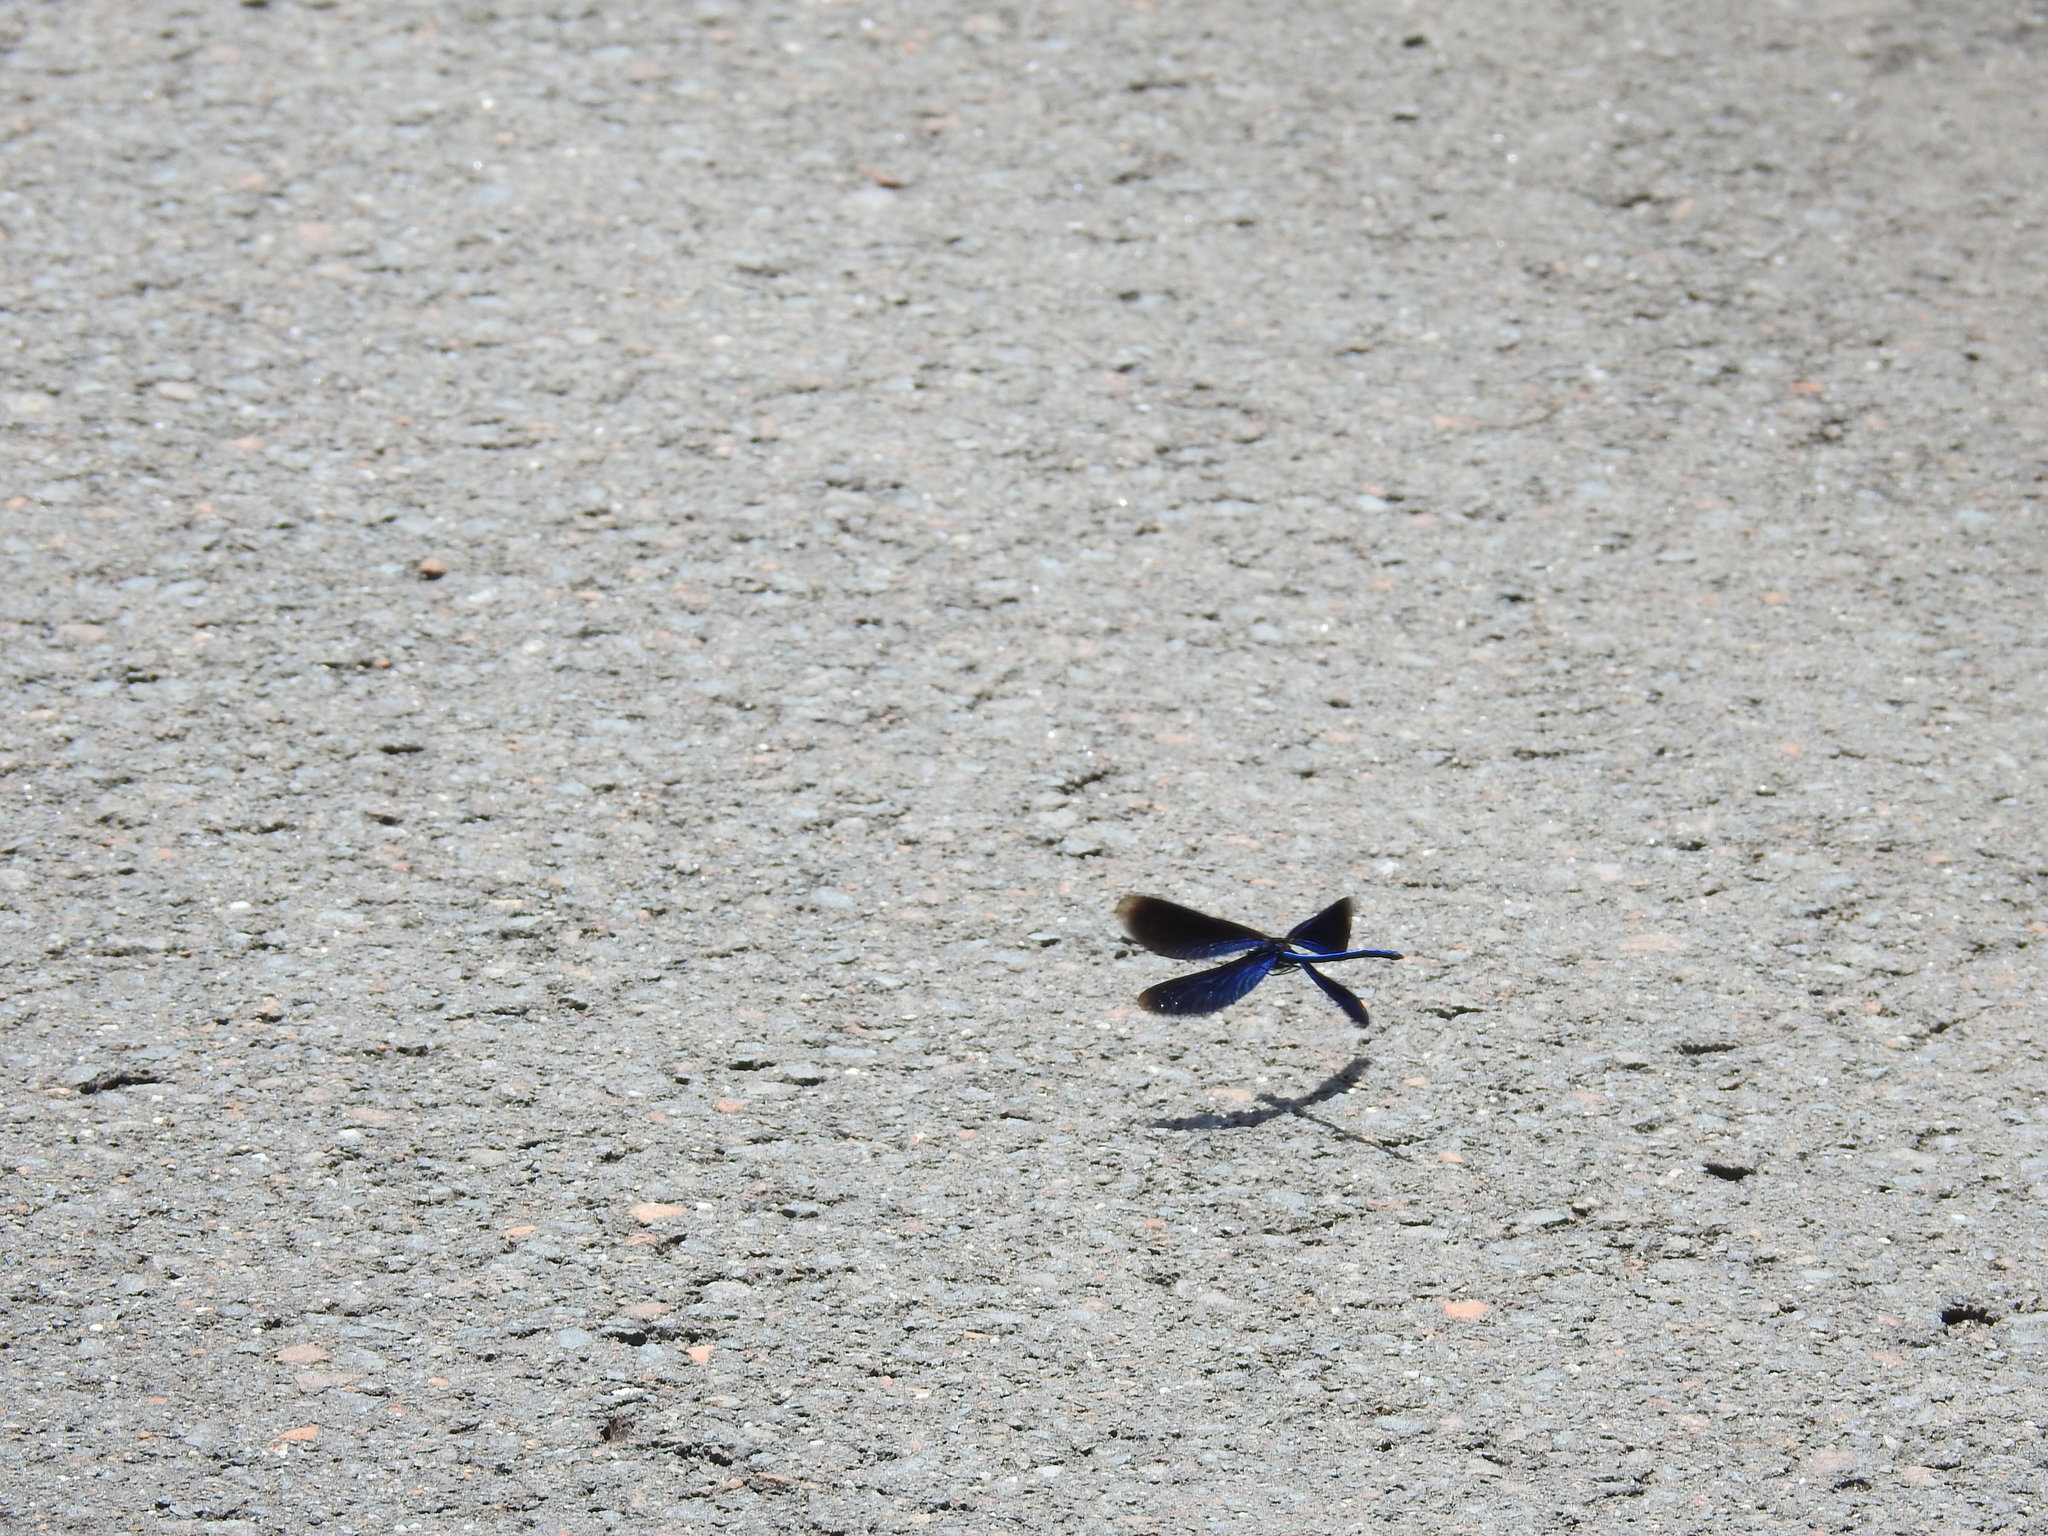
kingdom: Animalia
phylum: Arthropoda
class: Insecta
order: Odonata
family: Calopterygidae
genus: Calopteryx
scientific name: Calopteryx virgo
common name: Beautiful demoiselle
